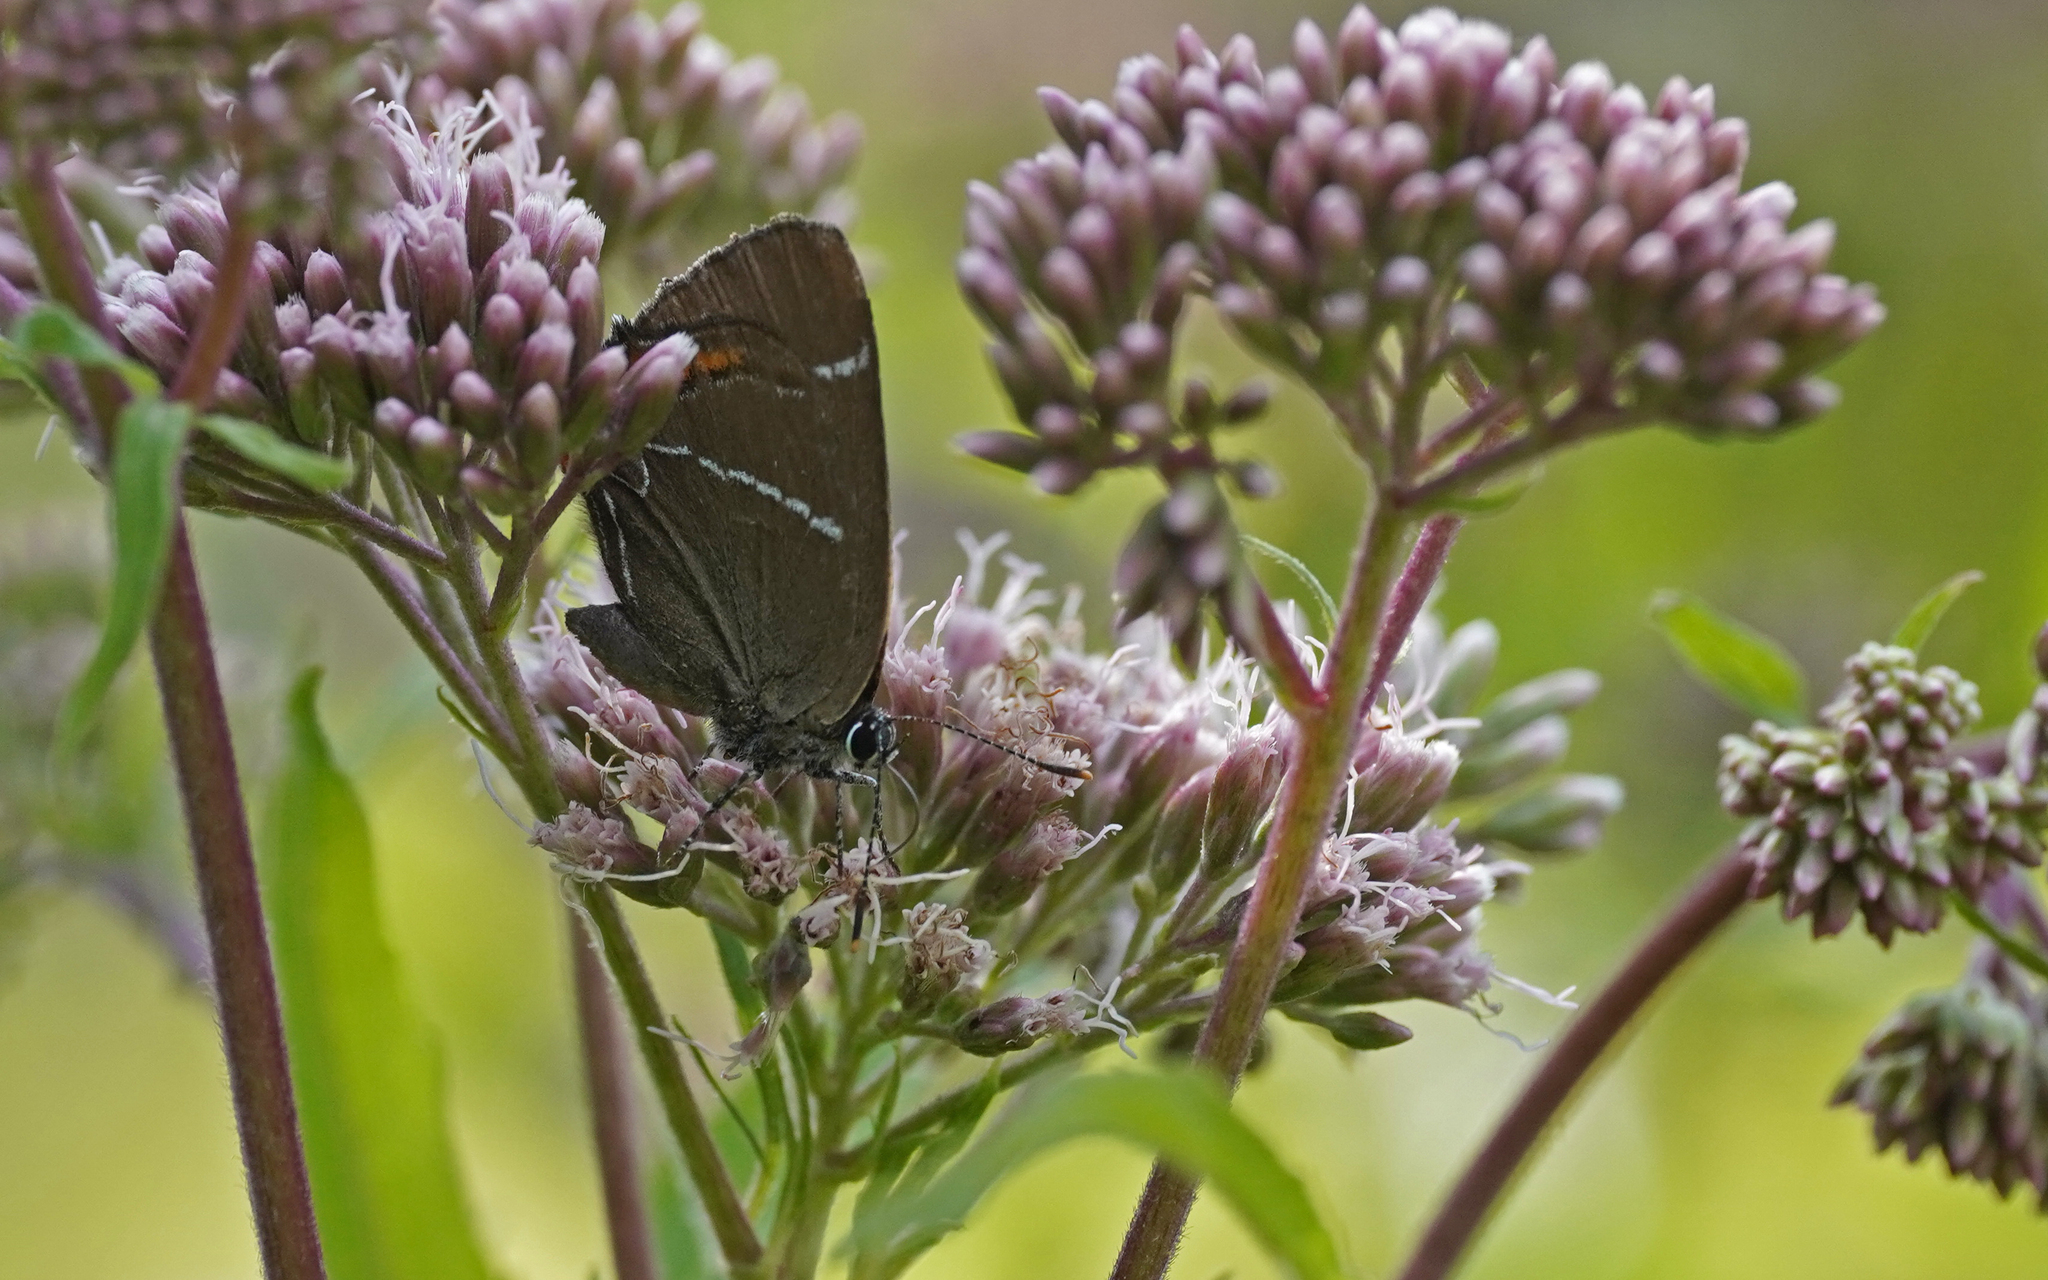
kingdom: Animalia
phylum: Arthropoda
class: Insecta
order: Lepidoptera
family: Lycaenidae
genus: Satyrium
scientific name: Satyrium w-album
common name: White-letter hairstreak
